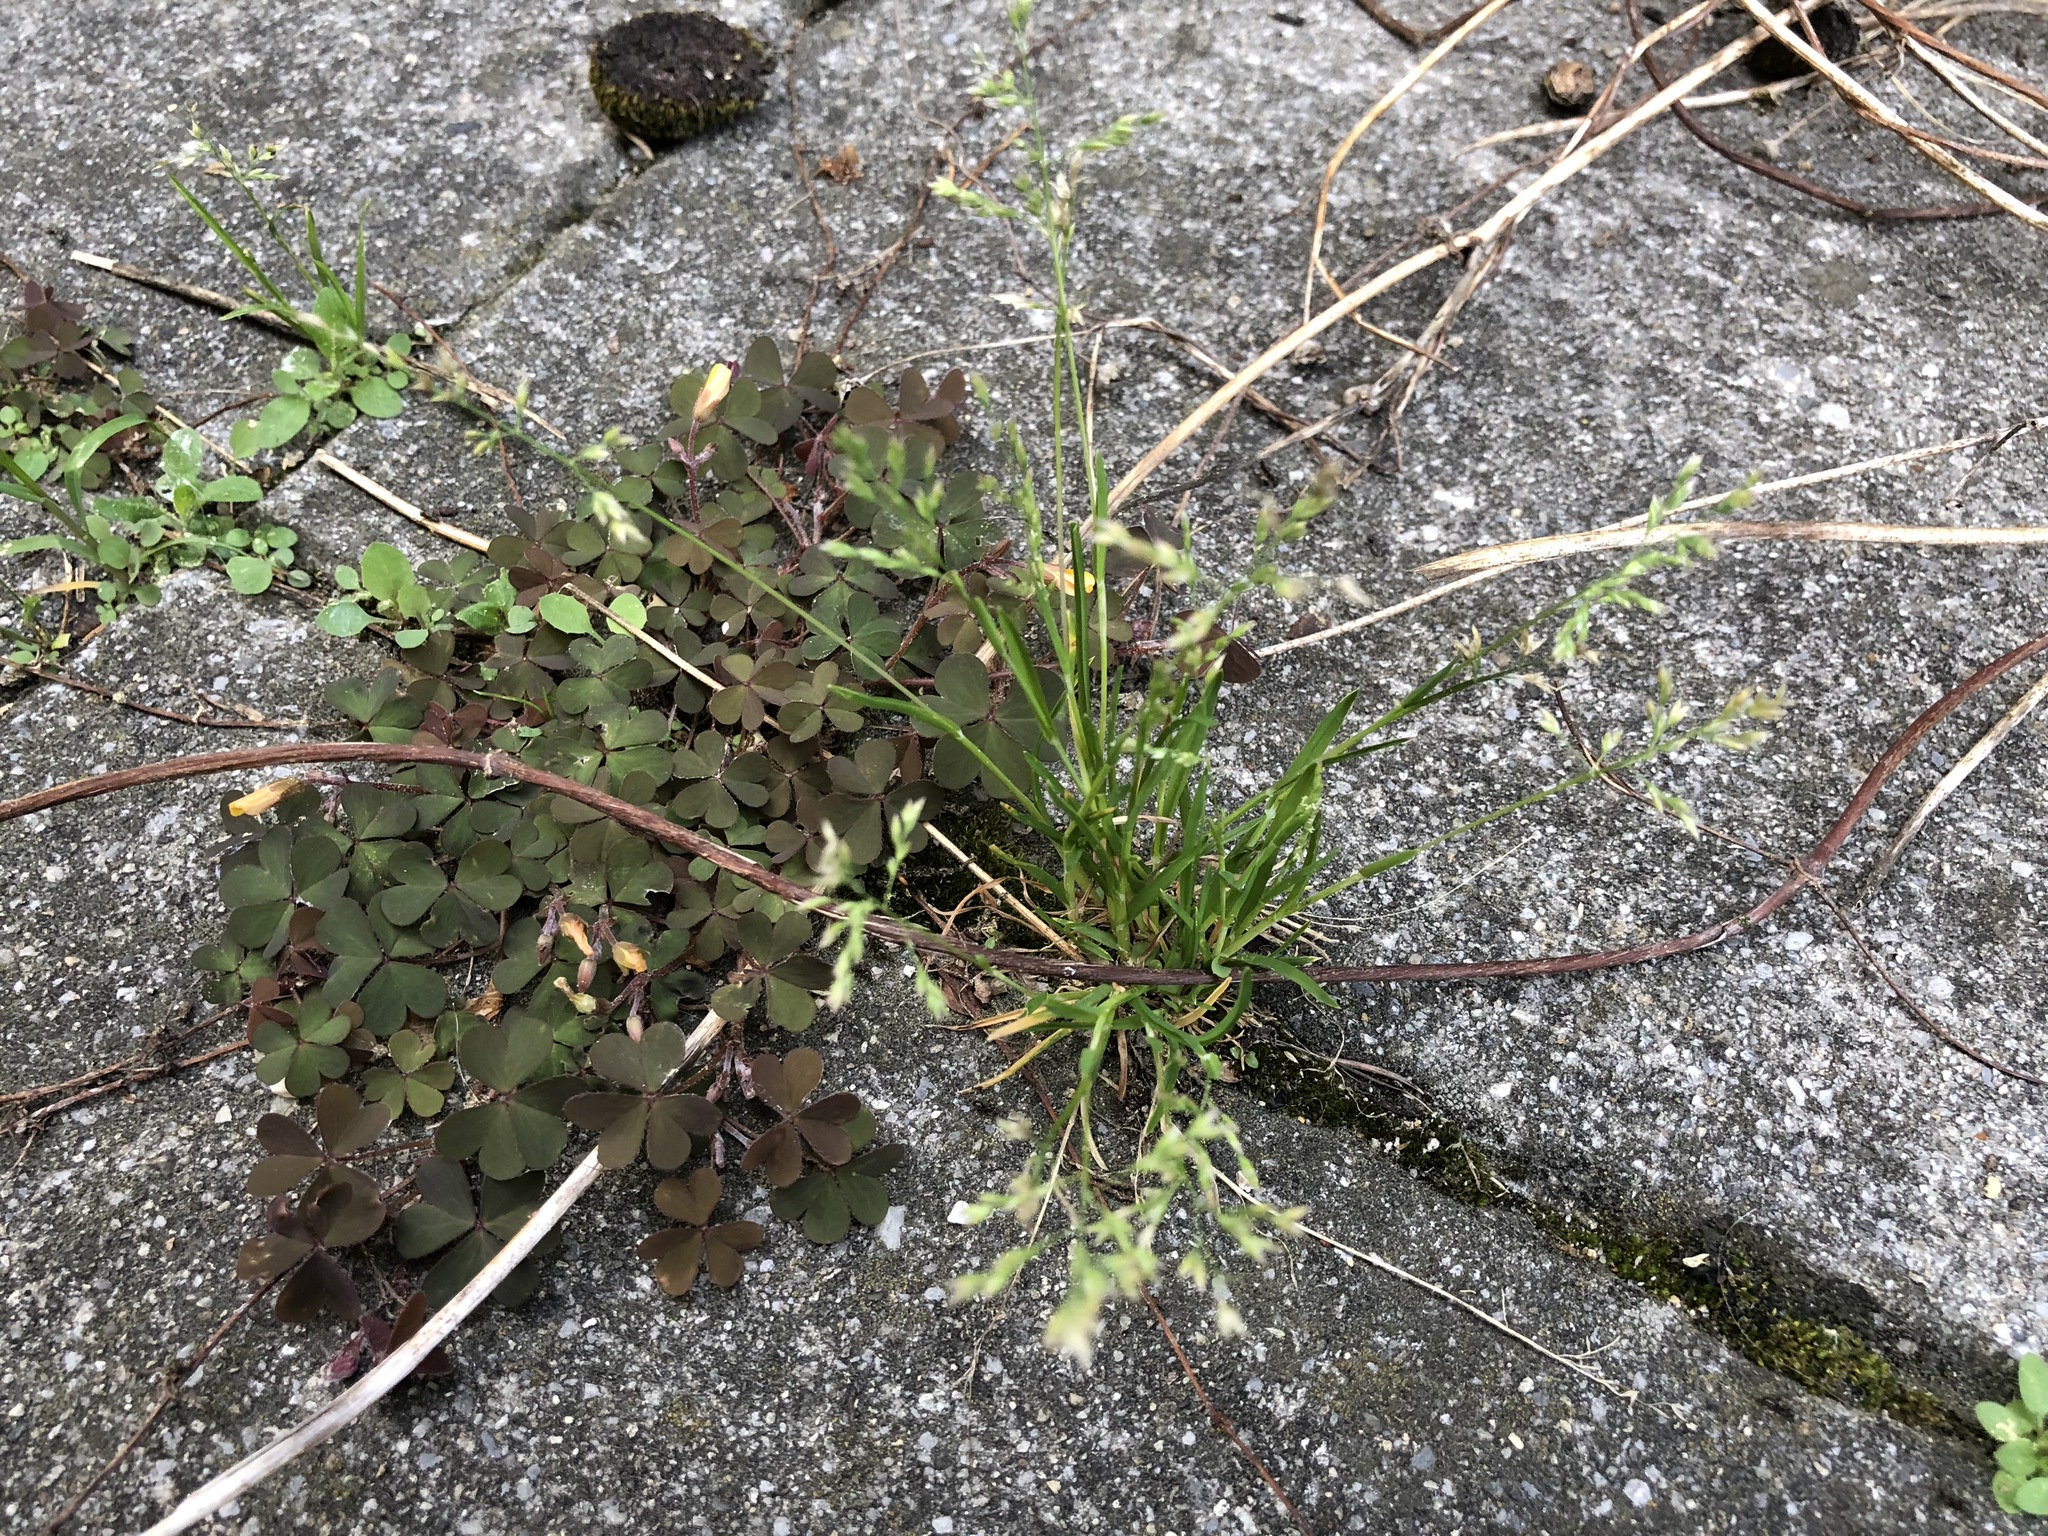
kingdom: Plantae
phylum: Tracheophyta
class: Liliopsida
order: Poales
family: Poaceae
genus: Poa
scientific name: Poa annua
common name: Annual bluegrass
